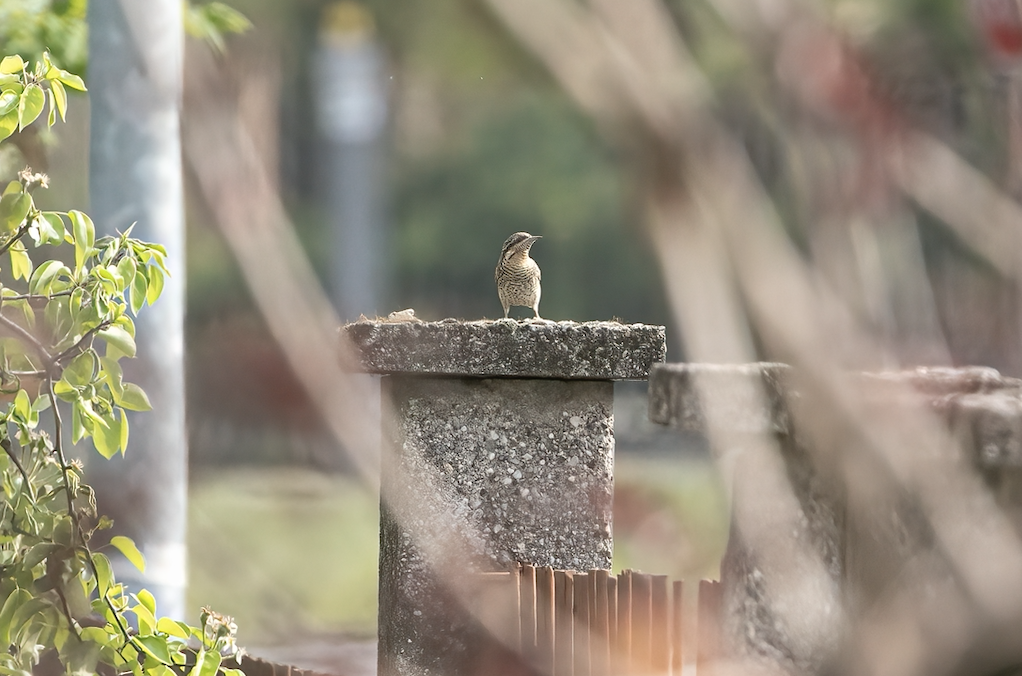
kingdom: Animalia
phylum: Chordata
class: Aves
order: Piciformes
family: Picidae
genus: Jynx
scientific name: Jynx torquilla
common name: Eurasian wryneck
